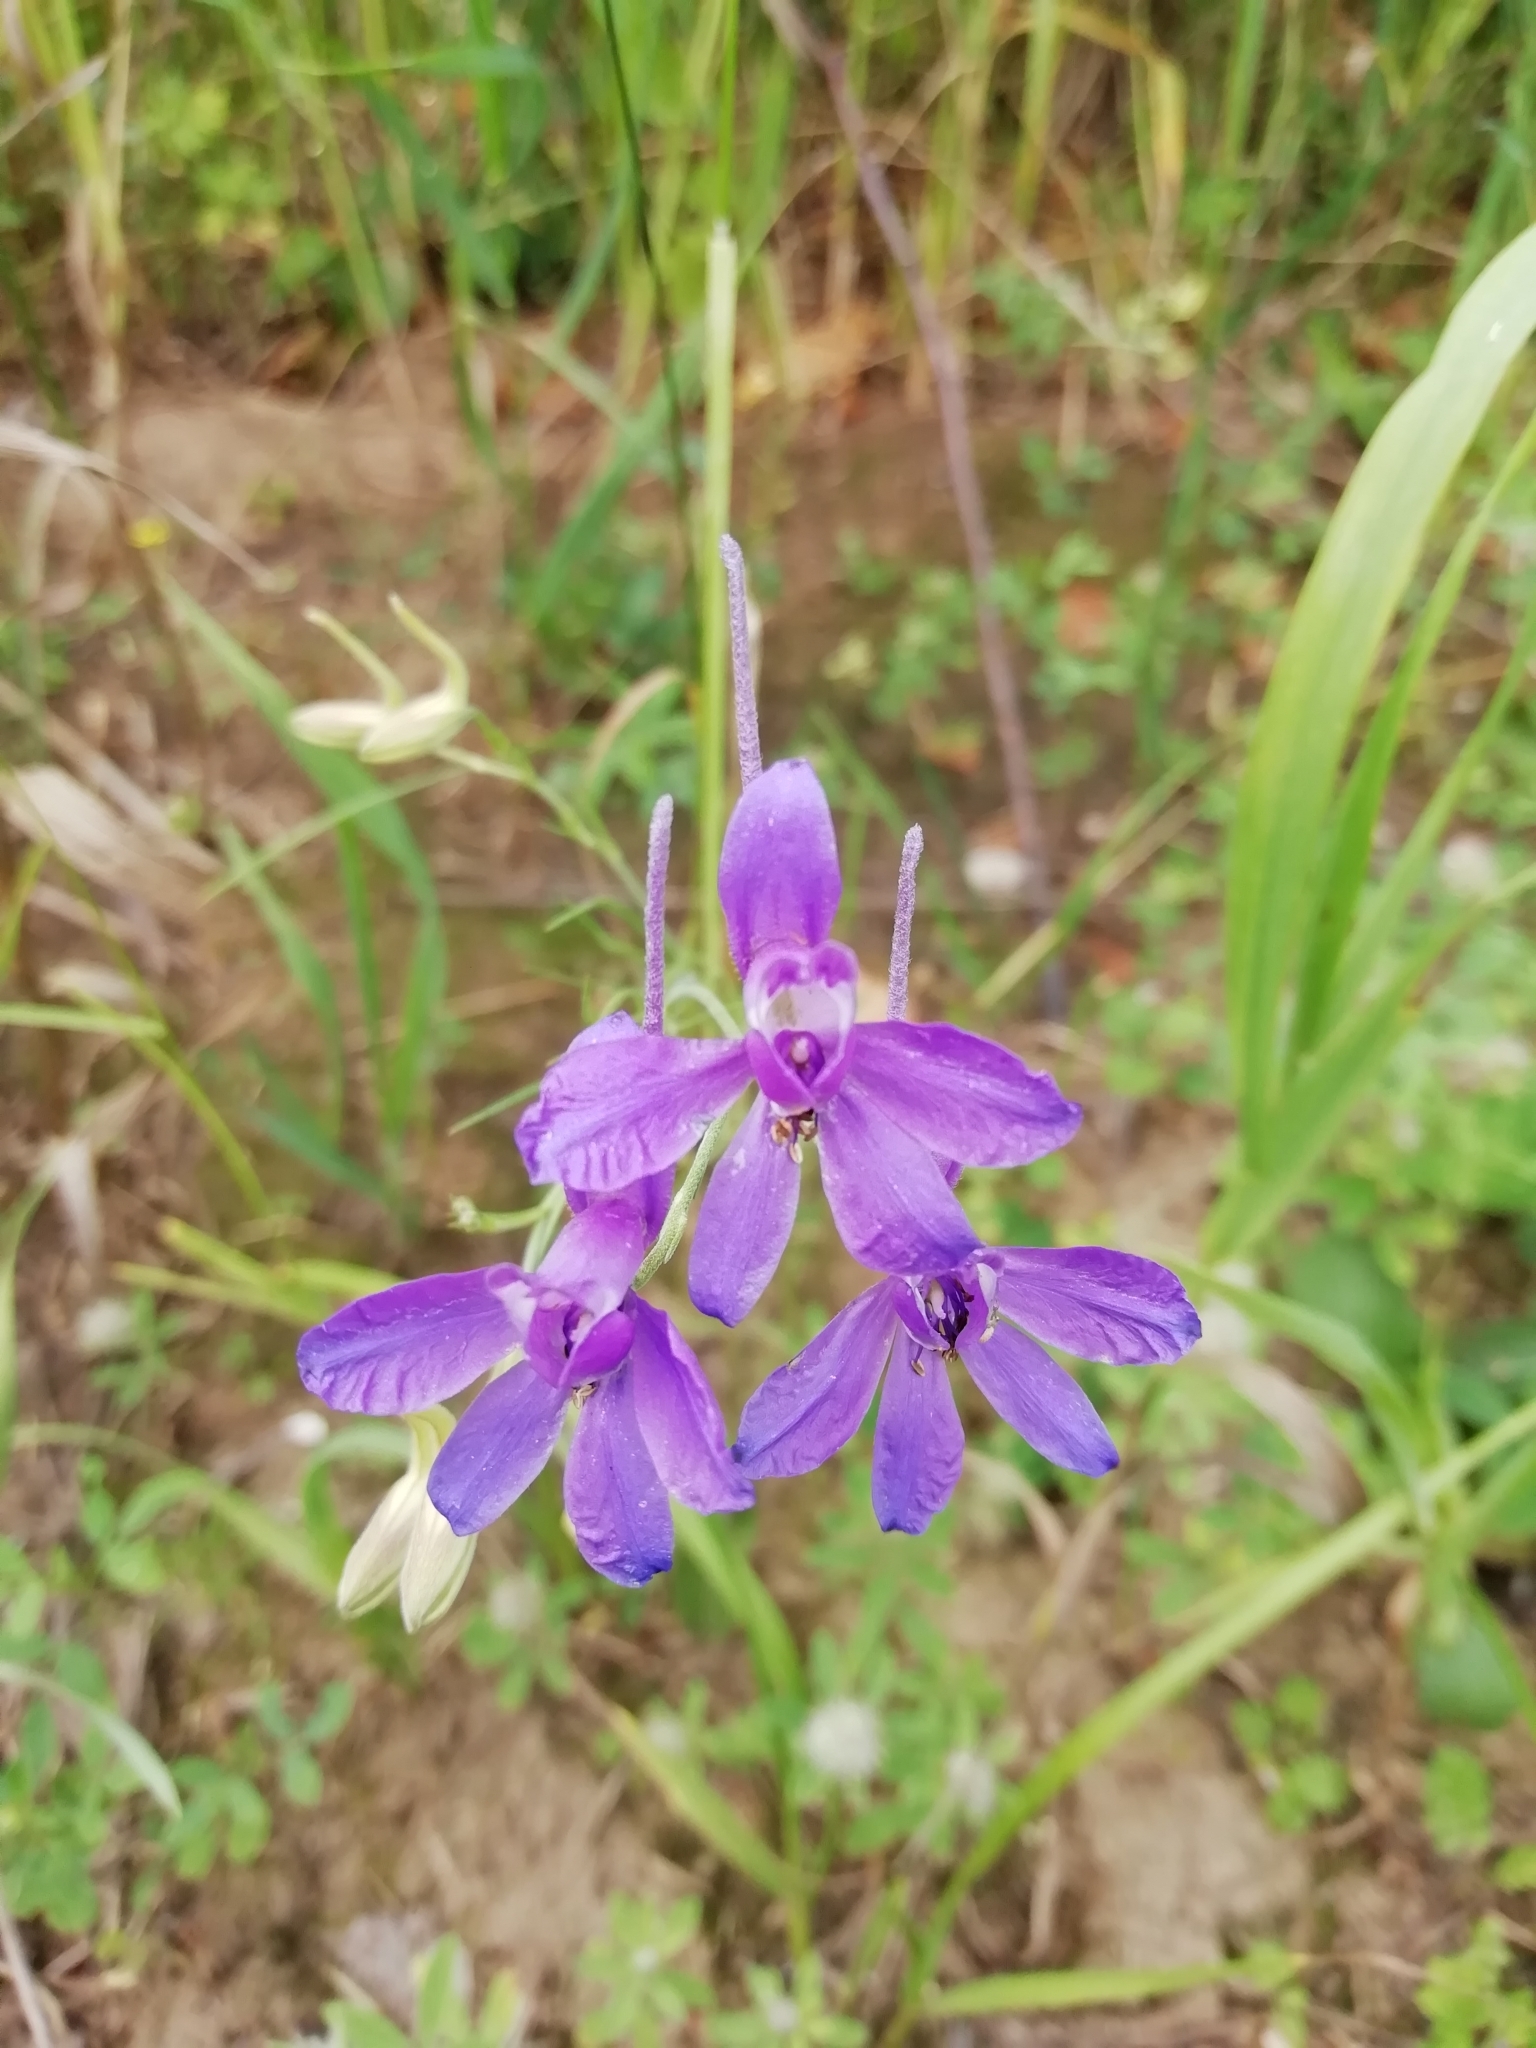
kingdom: Plantae
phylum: Tracheophyta
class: Magnoliopsida
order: Ranunculales
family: Ranunculaceae
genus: Delphinium
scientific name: Delphinium consolida
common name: Branching larkspur
